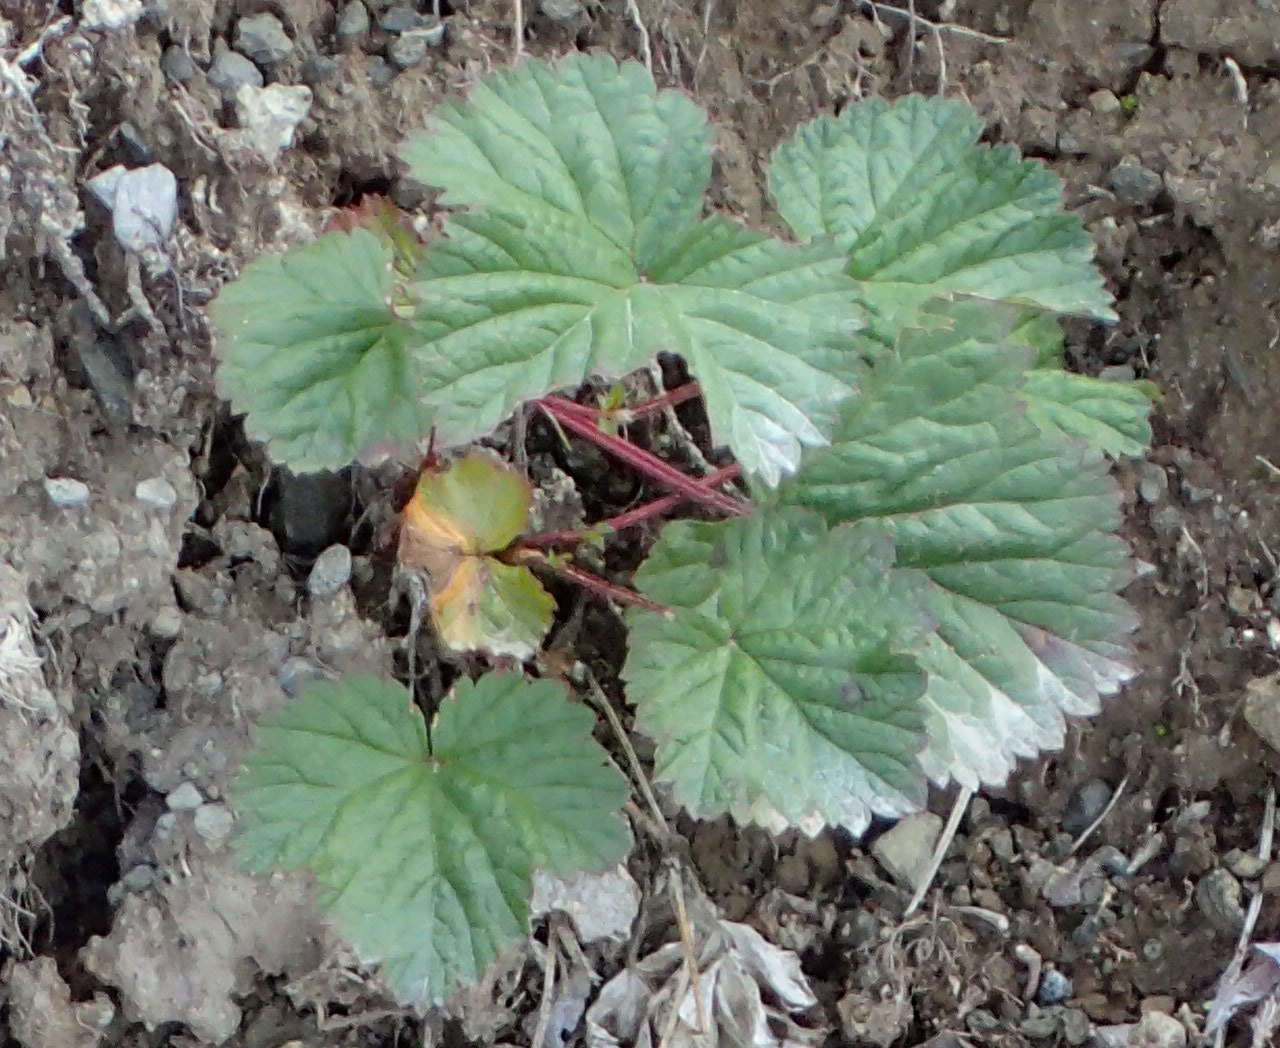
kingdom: Plantae
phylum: Tracheophyta
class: Magnoliopsida
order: Rosales
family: Rosaceae
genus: Rubus
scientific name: Rubus arcticus
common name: Arctic bramble
